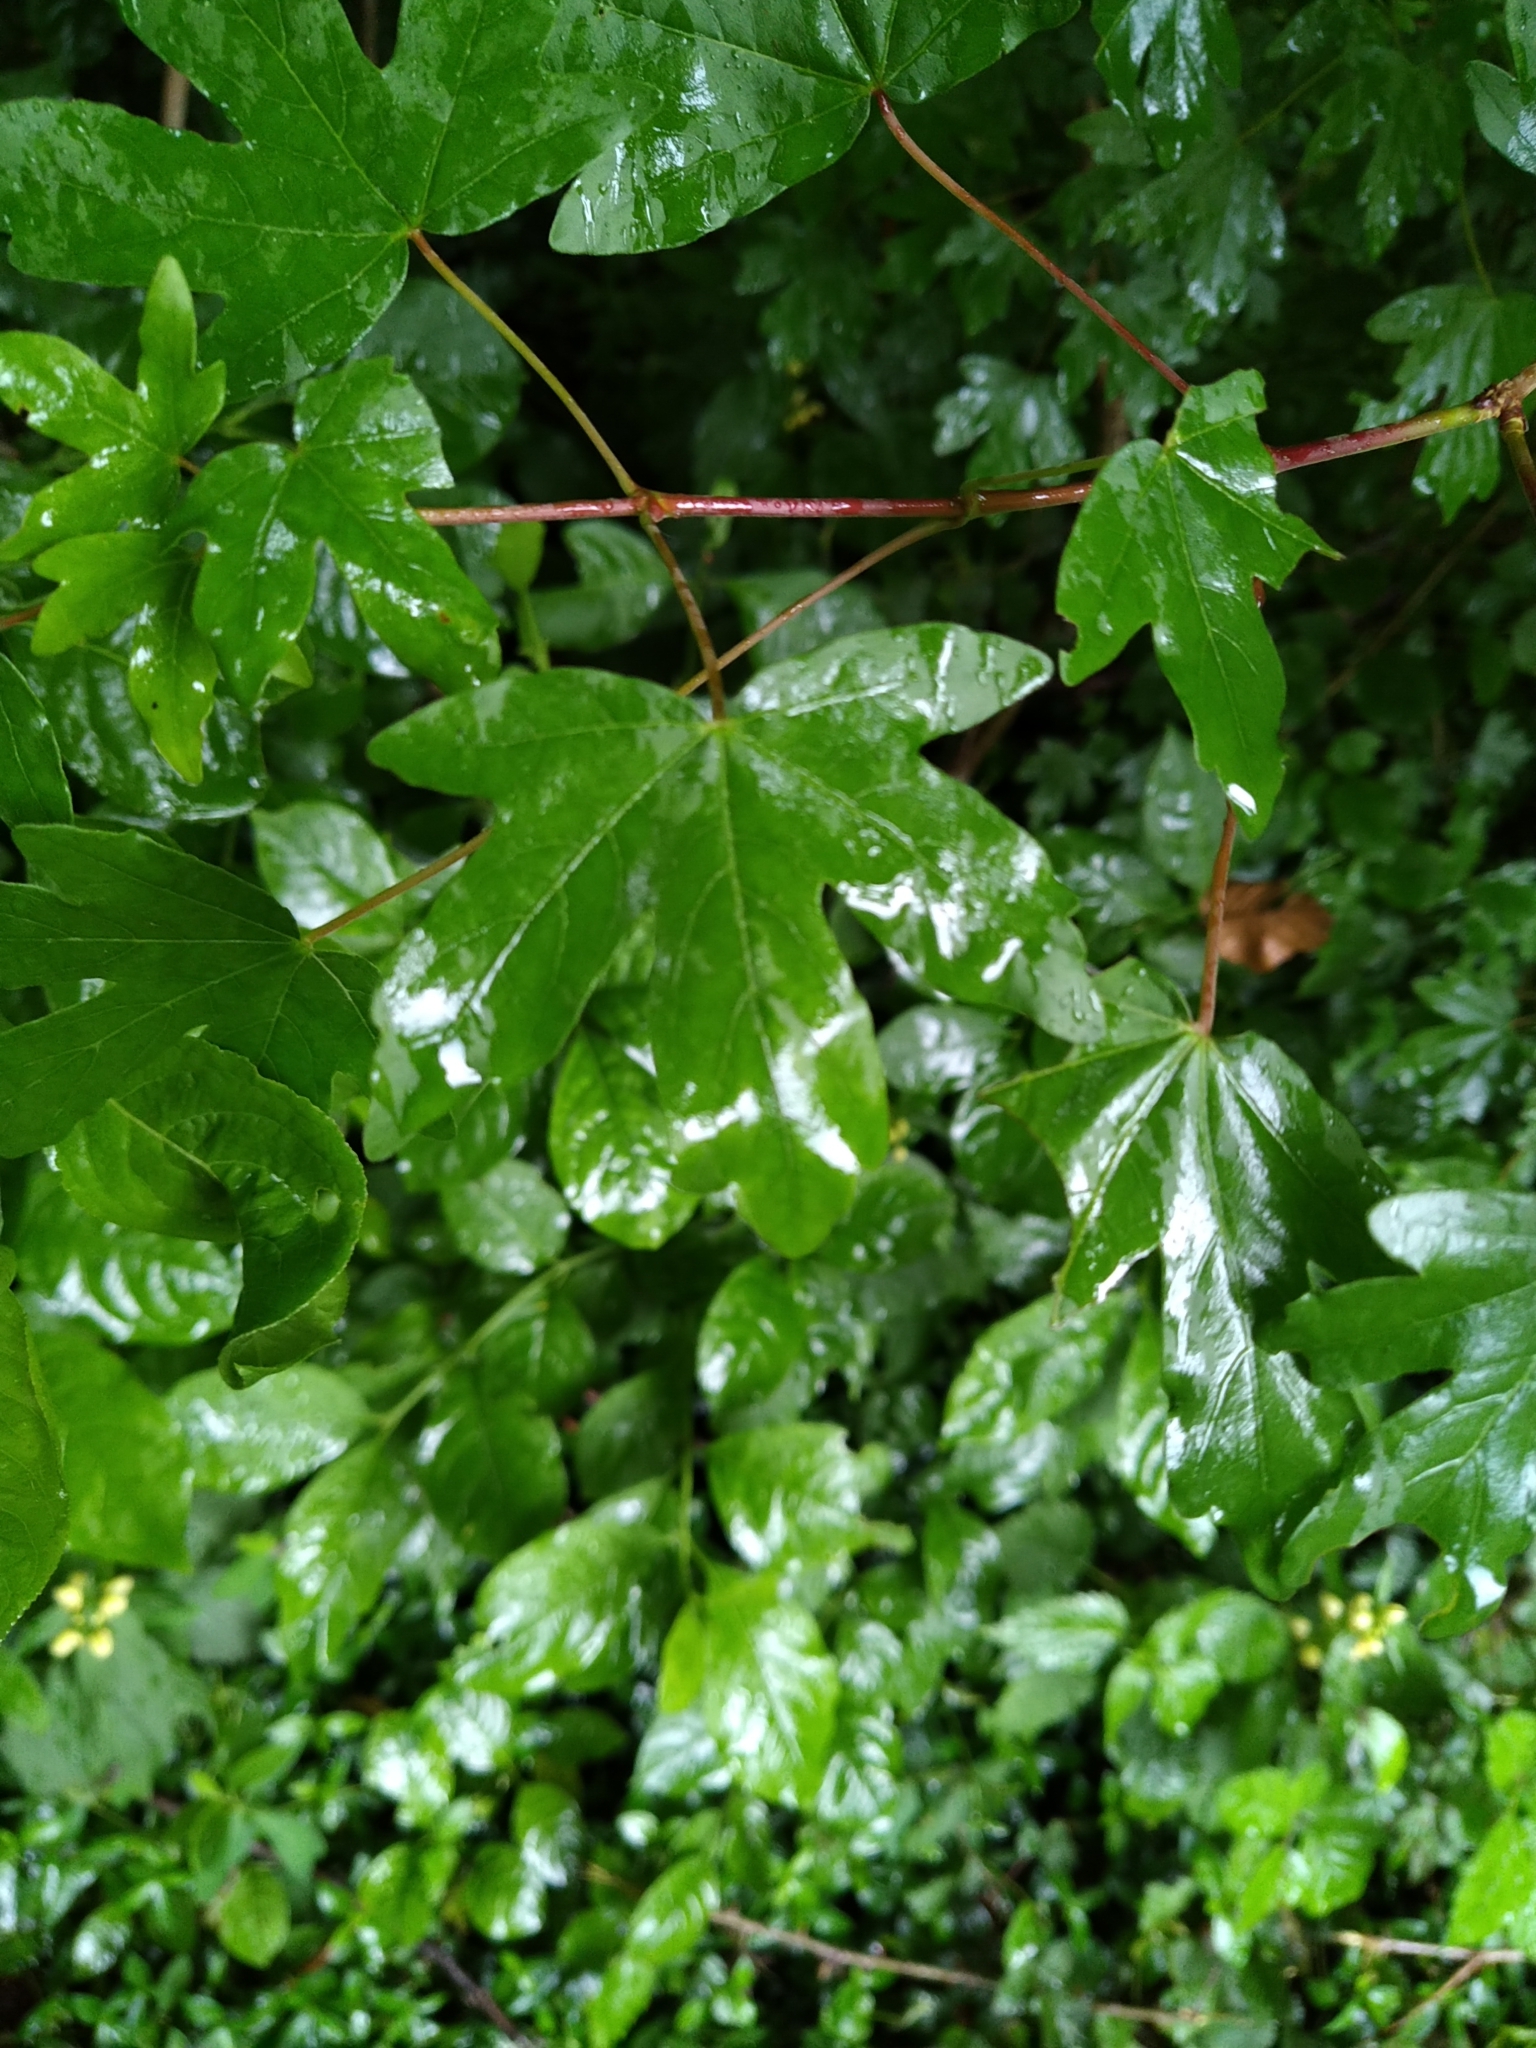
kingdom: Plantae
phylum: Tracheophyta
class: Magnoliopsida
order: Sapindales
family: Sapindaceae
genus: Acer
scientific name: Acer campestre
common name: Field maple
